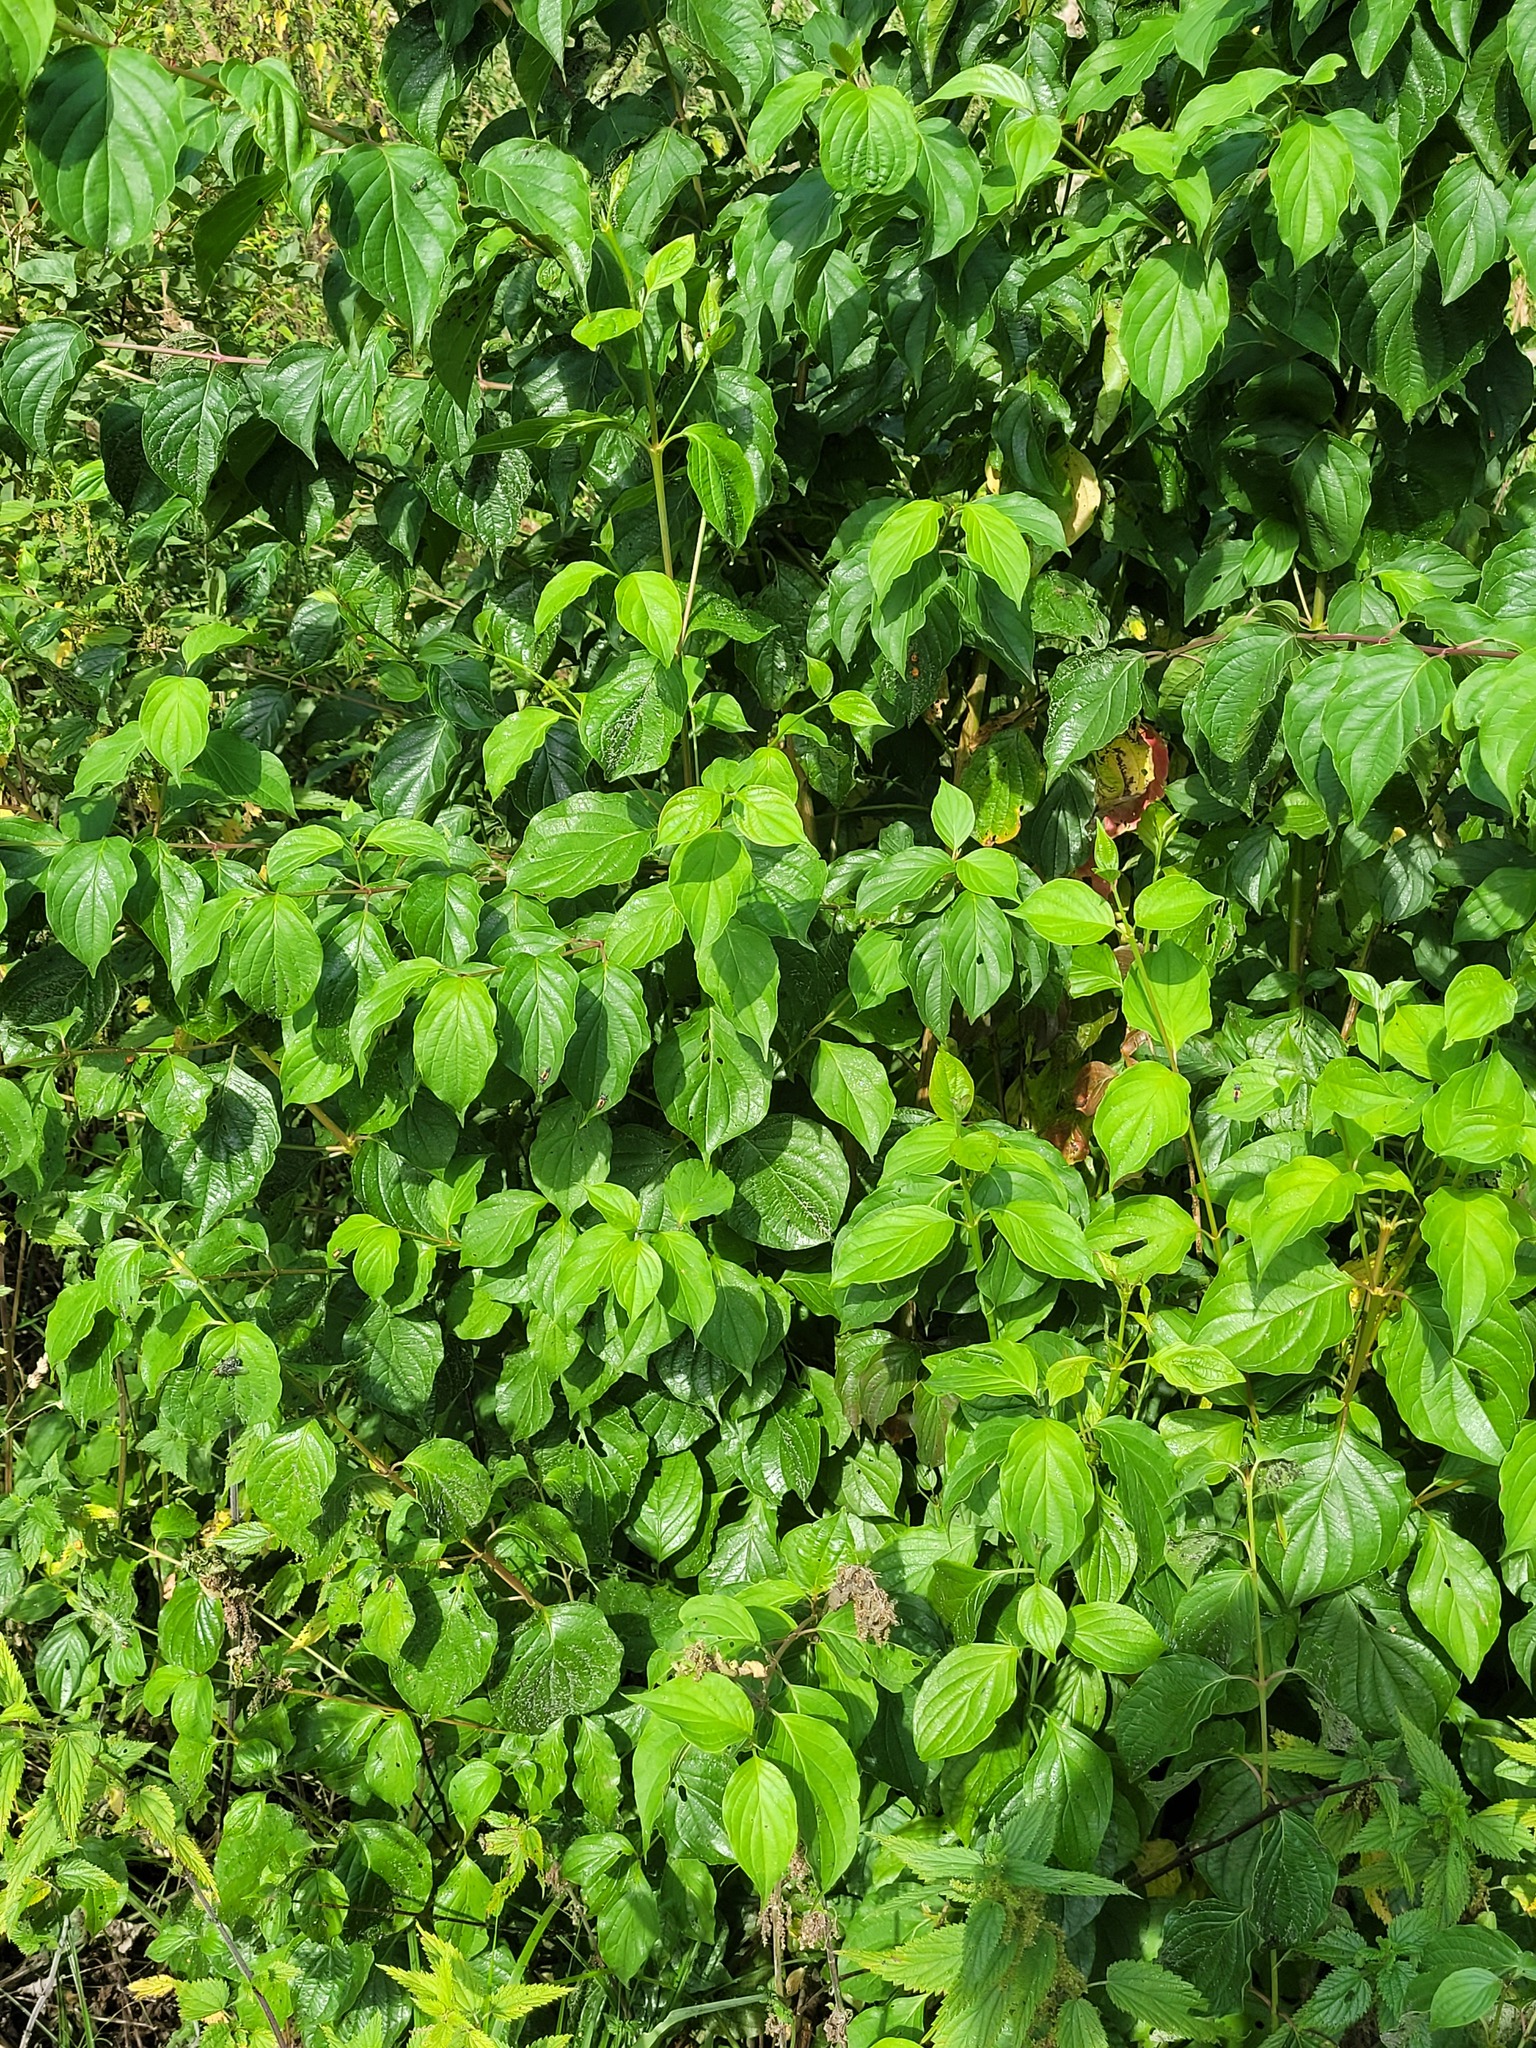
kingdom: Plantae
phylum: Tracheophyta
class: Magnoliopsida
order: Cornales
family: Cornaceae
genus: Cornus
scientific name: Cornus sanguinea
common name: Dogwood
